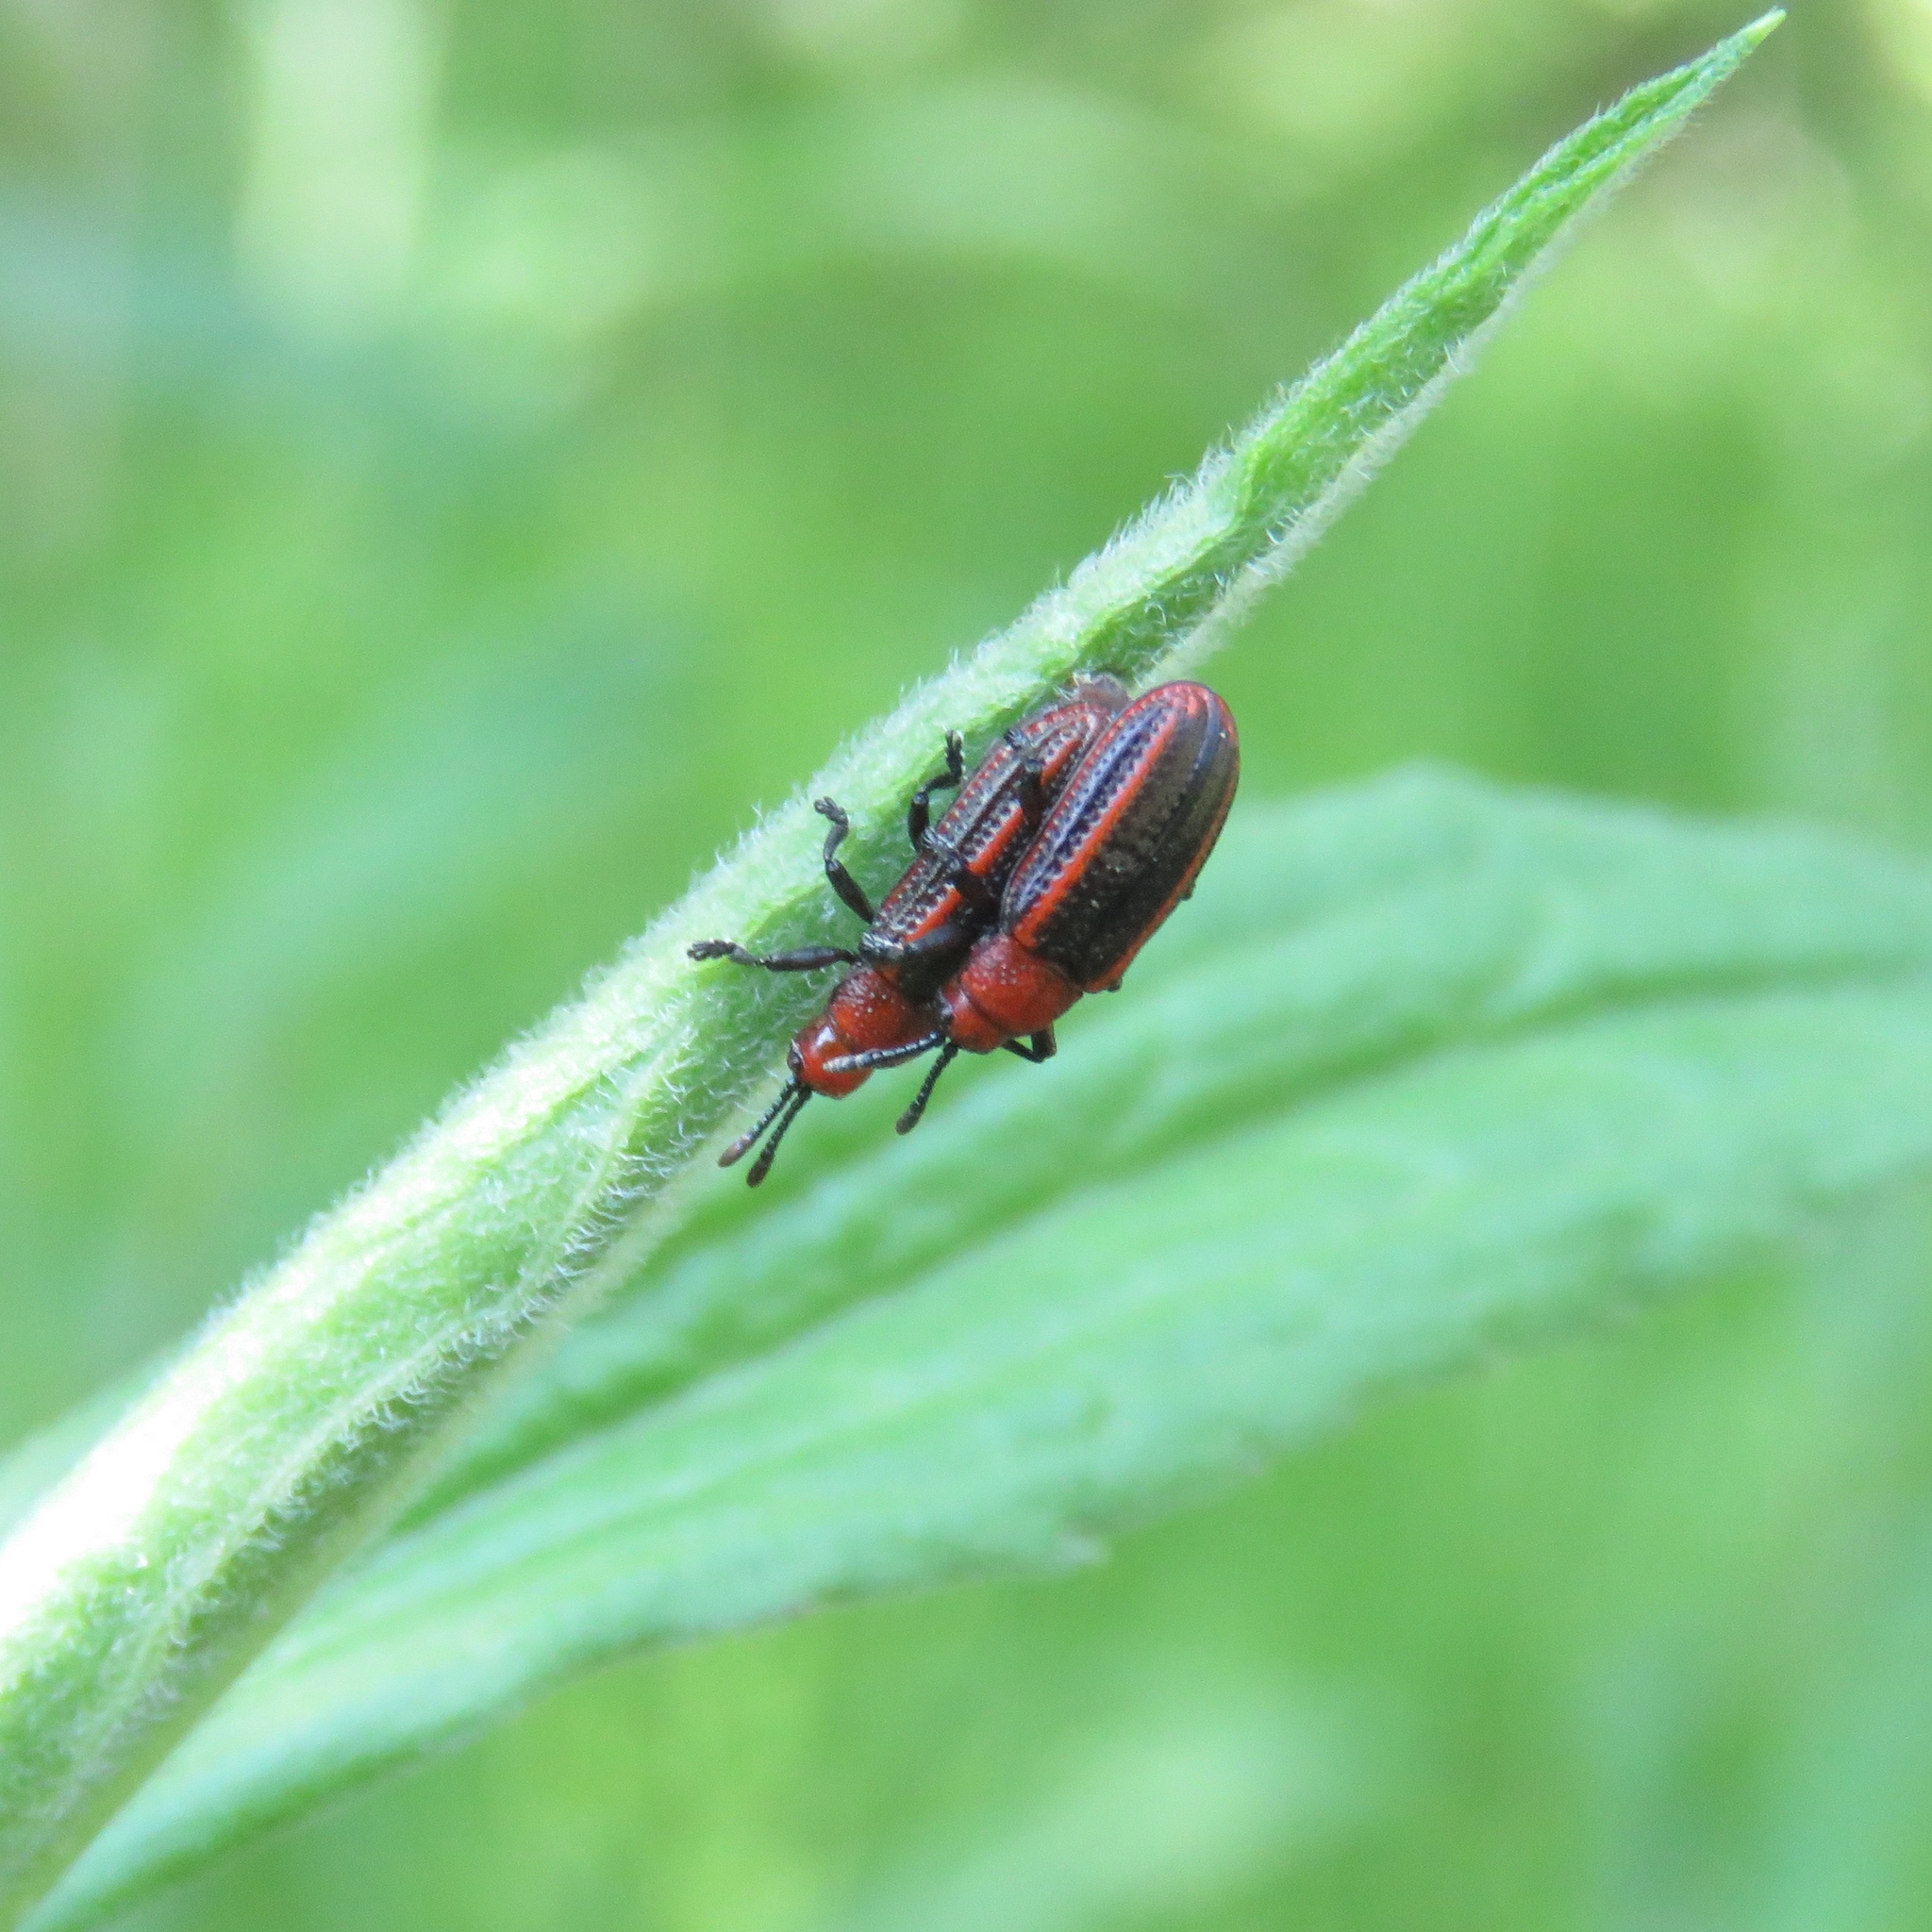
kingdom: Animalia
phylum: Arthropoda
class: Insecta
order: Coleoptera
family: Chrysomelidae
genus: Microrhopala
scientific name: Microrhopala vittata
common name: Goldenrod leaf miner beetle
